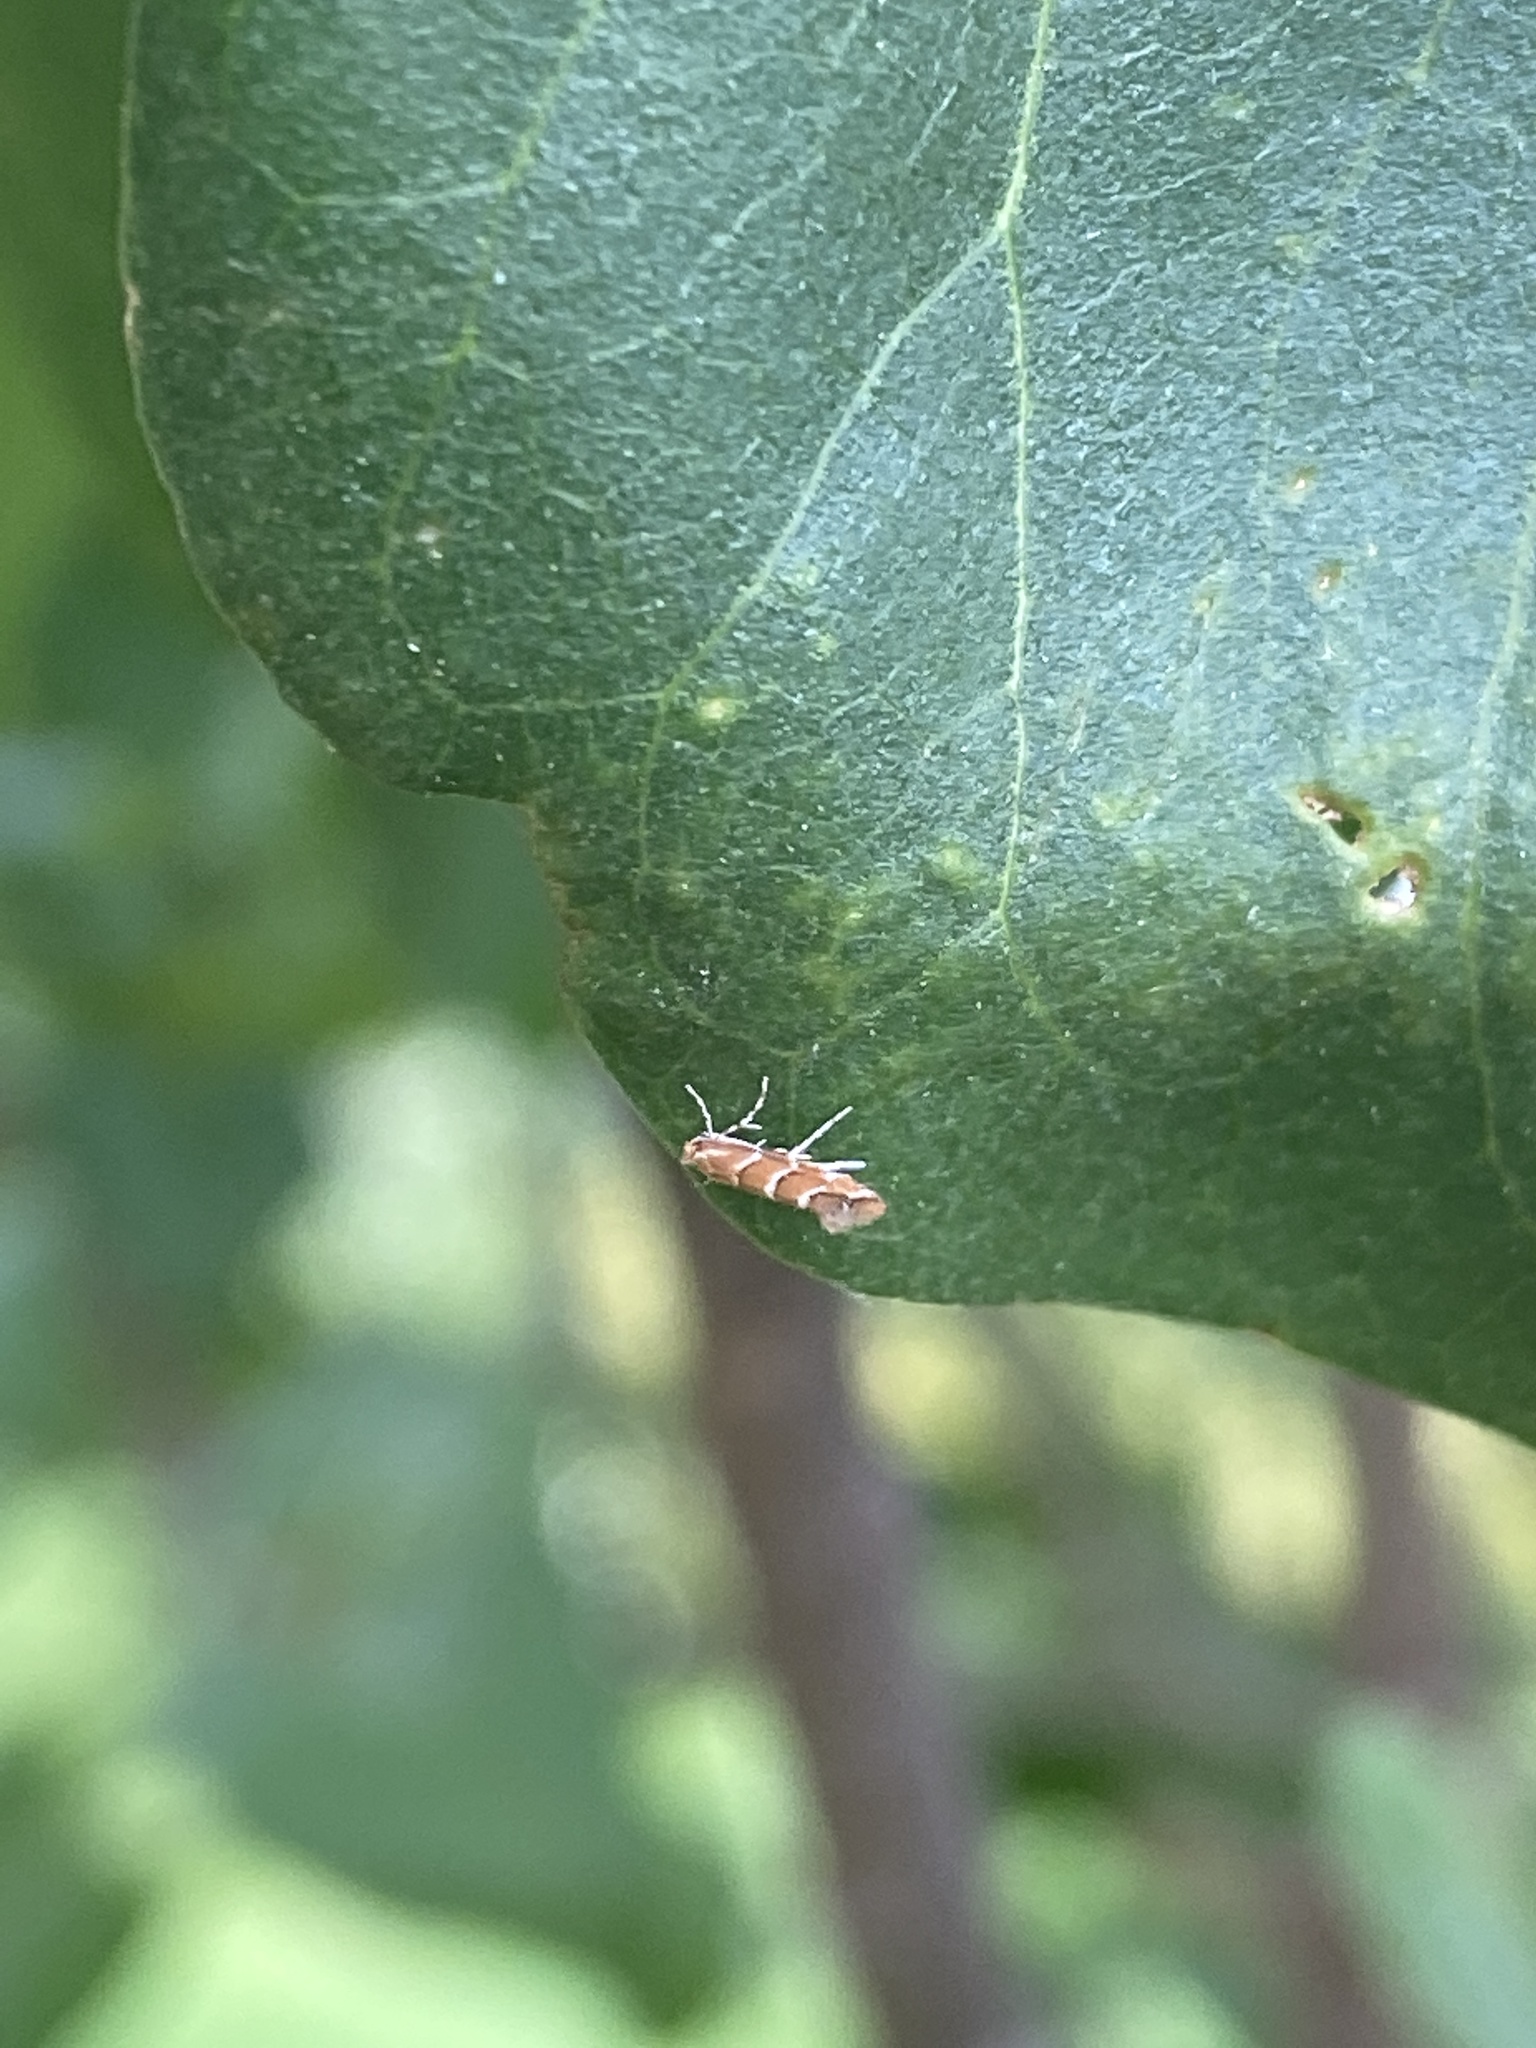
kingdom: Animalia
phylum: Arthropoda
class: Insecta
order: Lepidoptera
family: Gracillariidae
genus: Cameraria
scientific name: Cameraria ohridella
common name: Horse-chestnut leaf-miner
